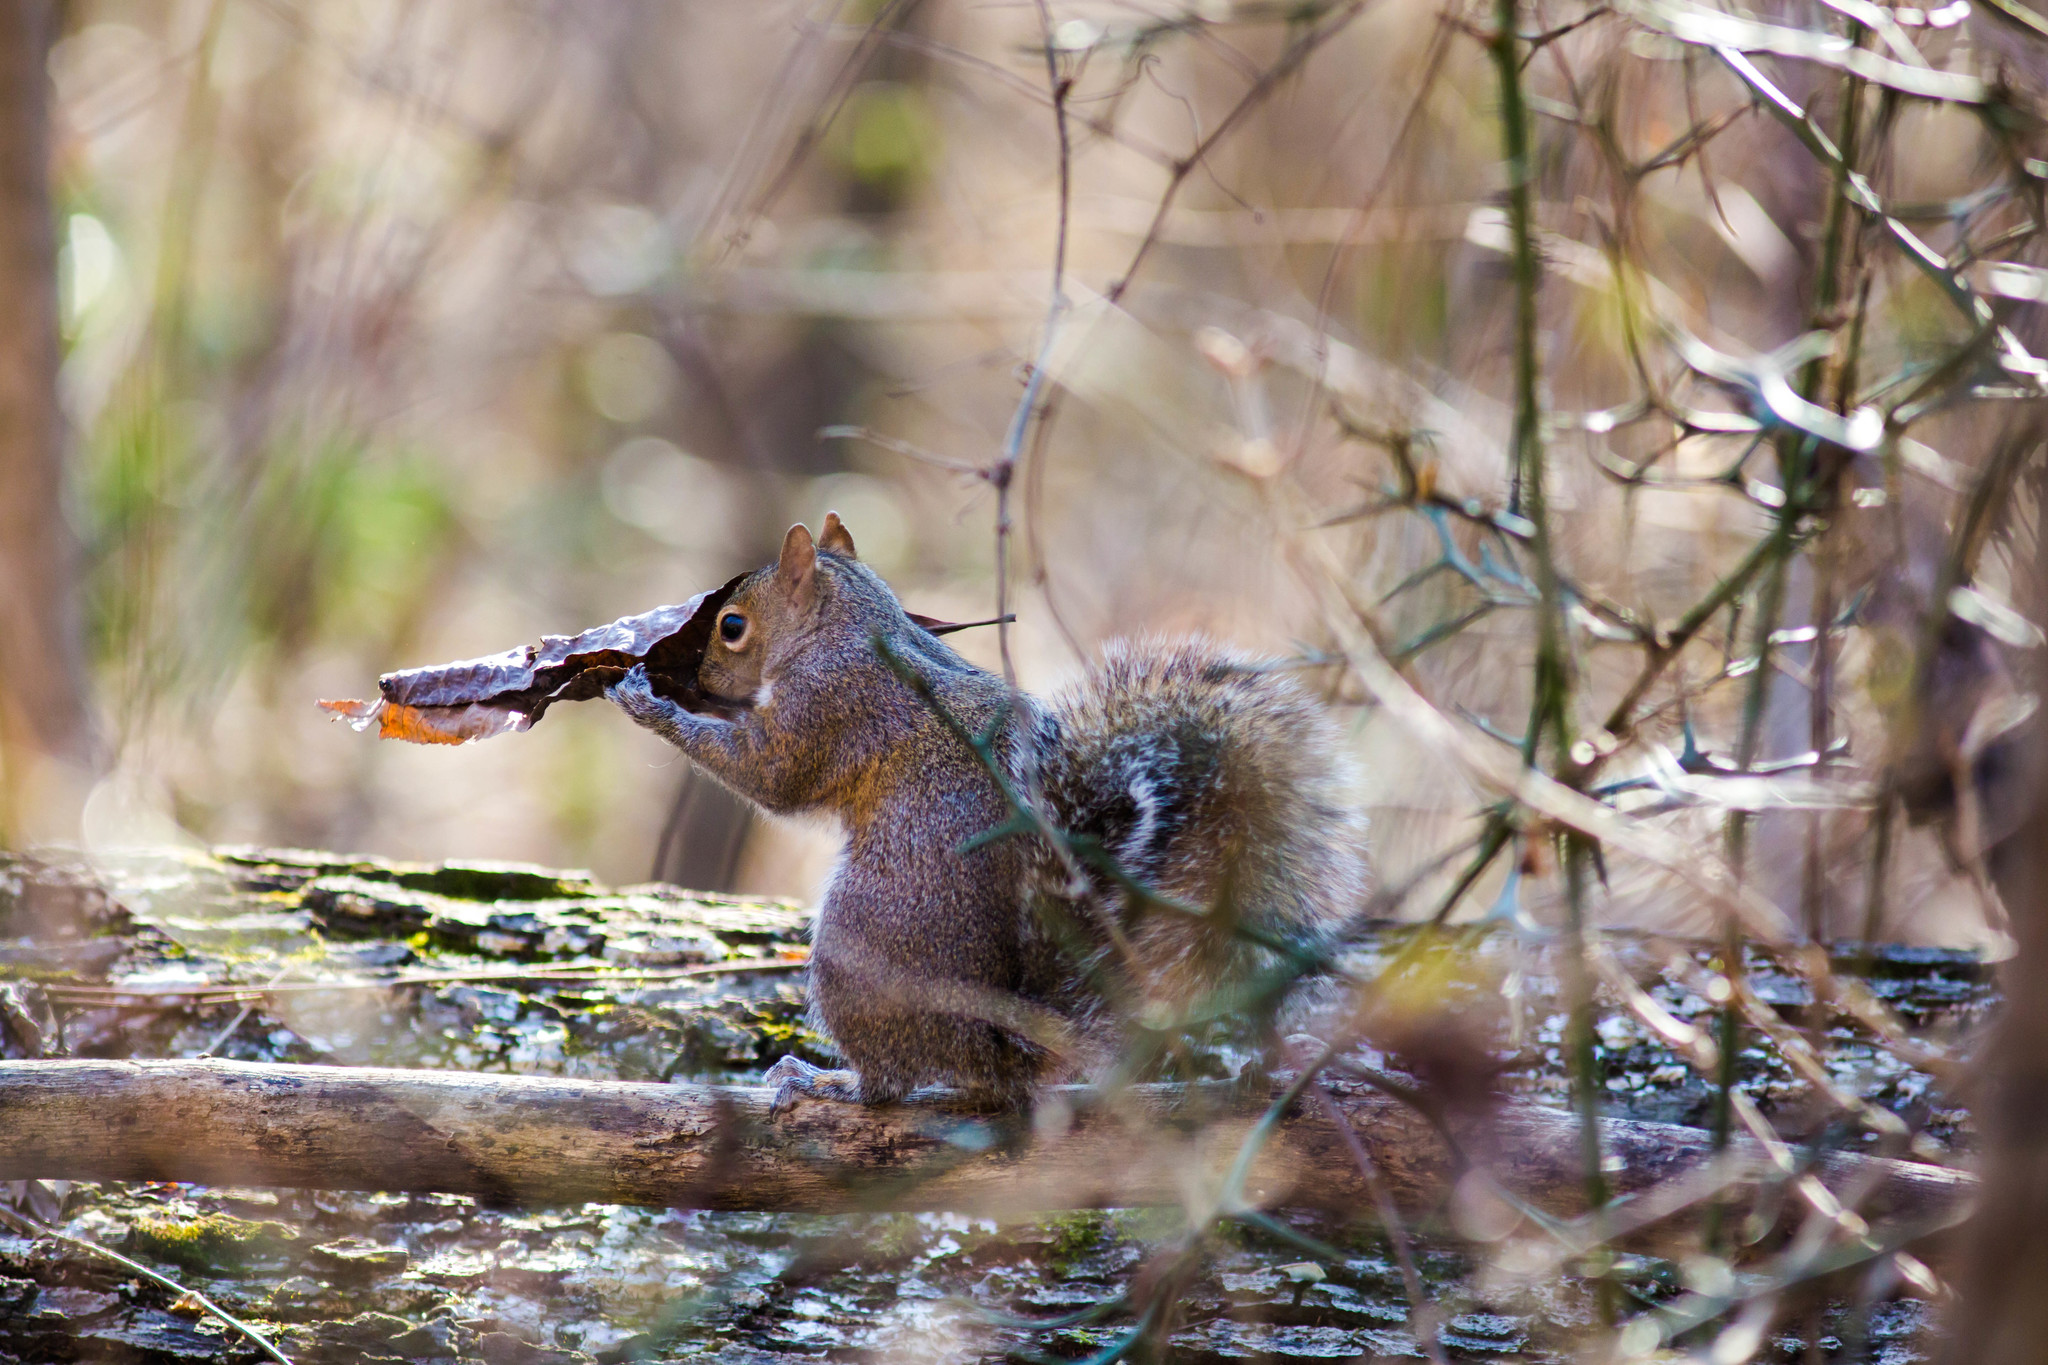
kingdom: Animalia
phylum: Chordata
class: Mammalia
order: Rodentia
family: Sciuridae
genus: Sciurus
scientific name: Sciurus carolinensis
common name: Eastern gray squirrel
